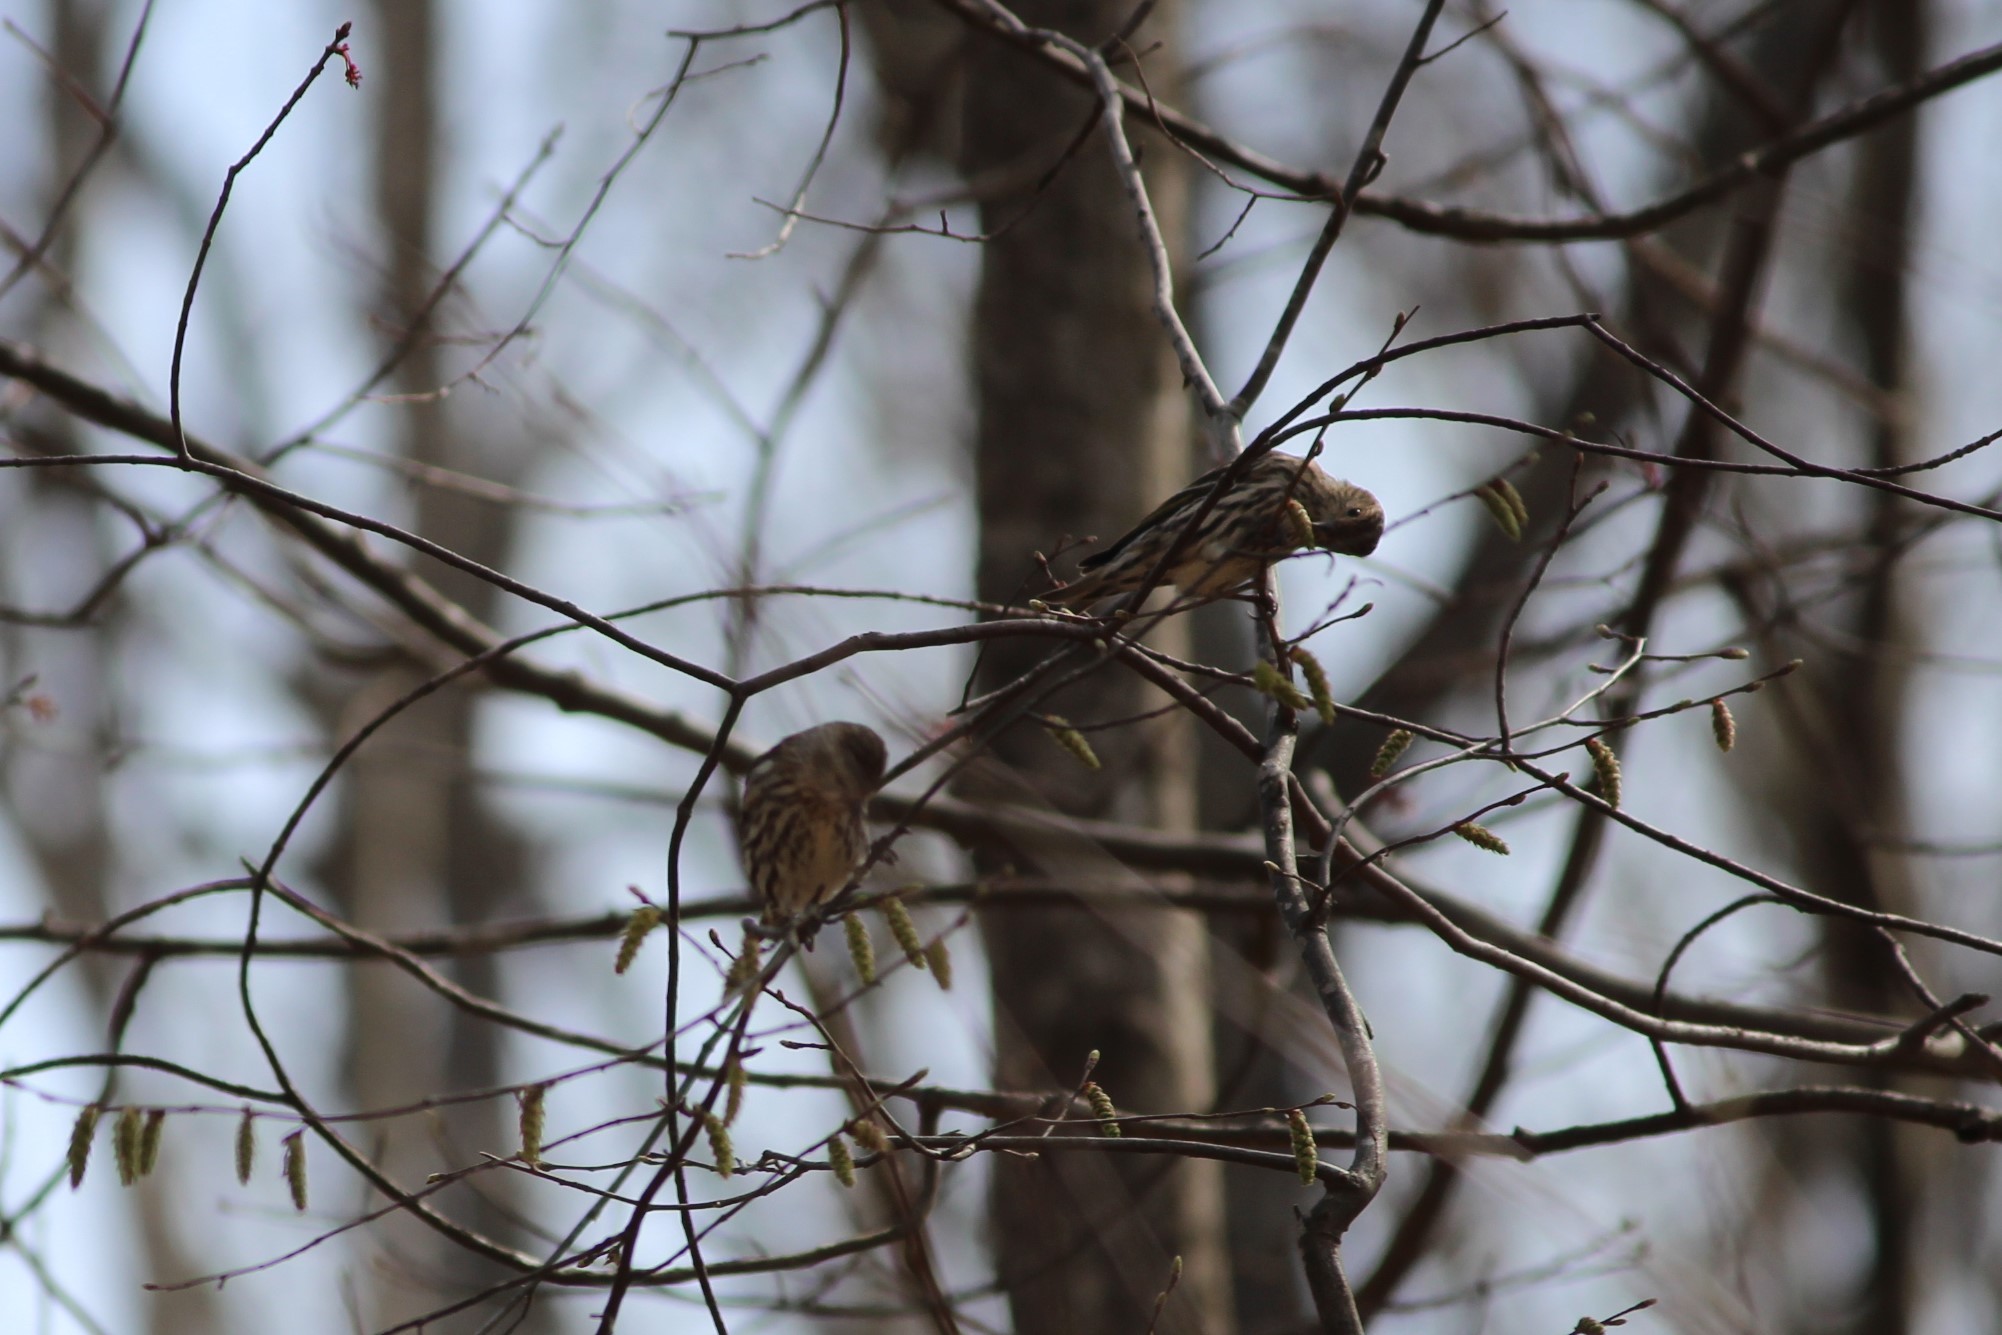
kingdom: Animalia
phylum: Chordata
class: Aves
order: Passeriformes
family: Fringillidae
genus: Spinus
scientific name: Spinus pinus
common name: Pine siskin
